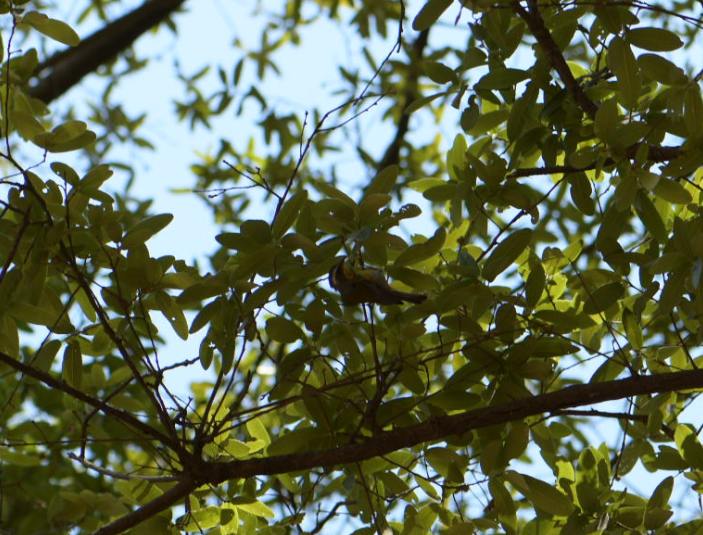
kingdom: Animalia
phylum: Chordata
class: Aves
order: Passeriformes
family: Parulidae
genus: Oreothlypis
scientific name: Oreothlypis superciliosa
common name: Crescent-chested warbler
